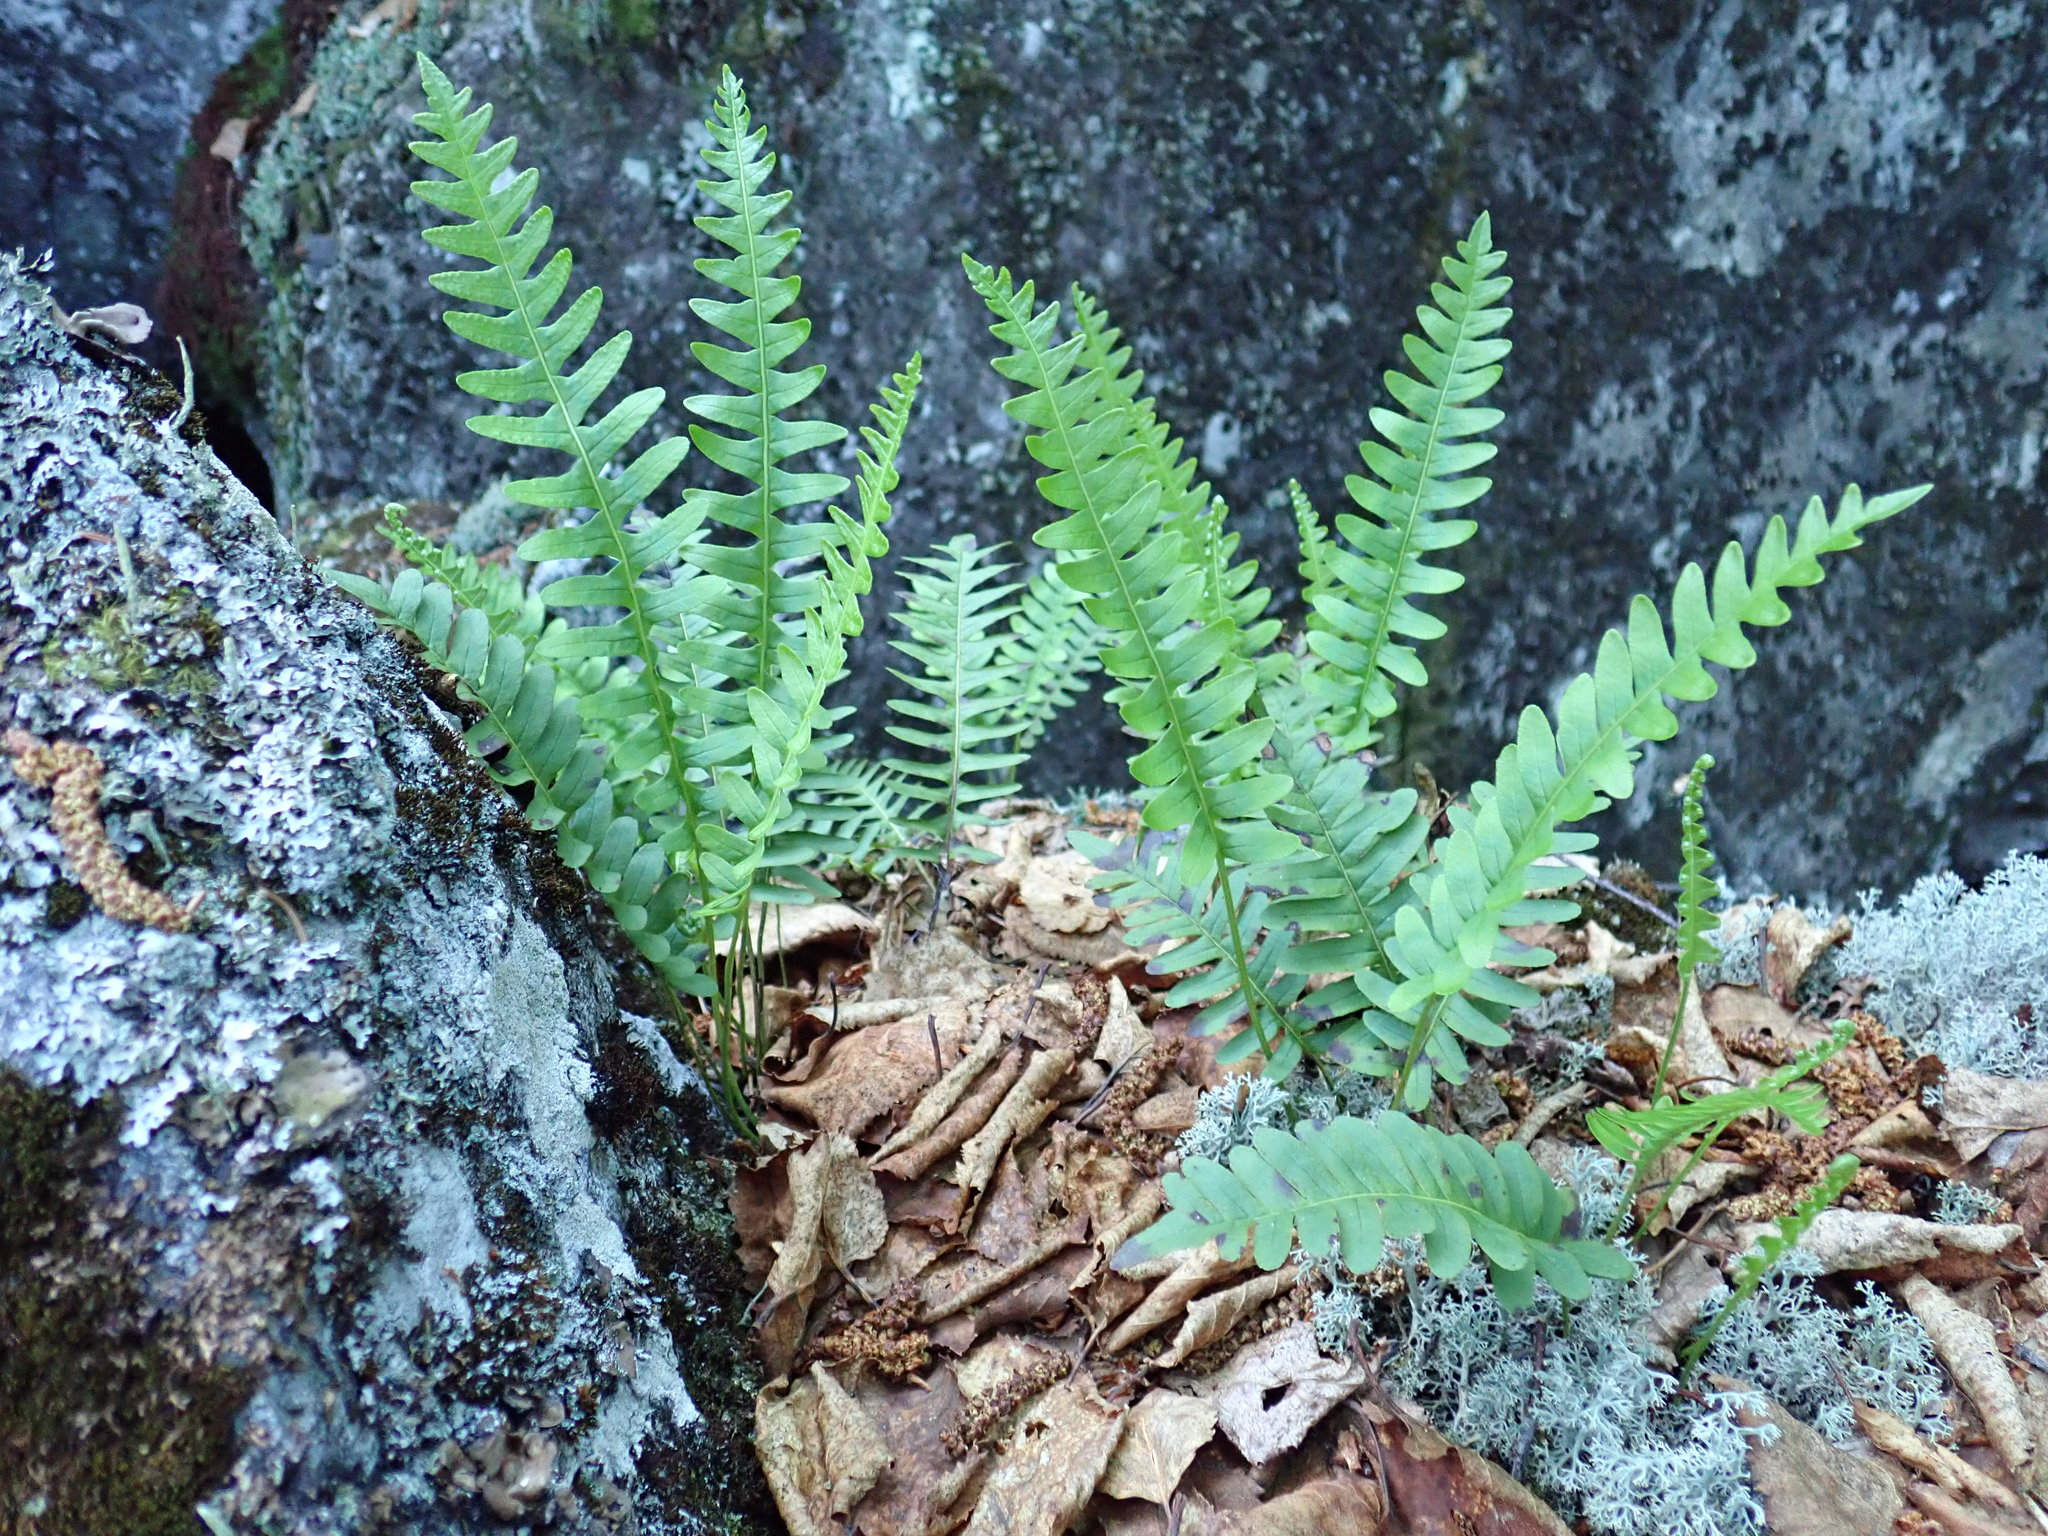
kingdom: Plantae
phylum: Tracheophyta
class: Polypodiopsida
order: Polypodiales
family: Polypodiaceae
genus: Polypodium
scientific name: Polypodium virginianum
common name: American wall fern
